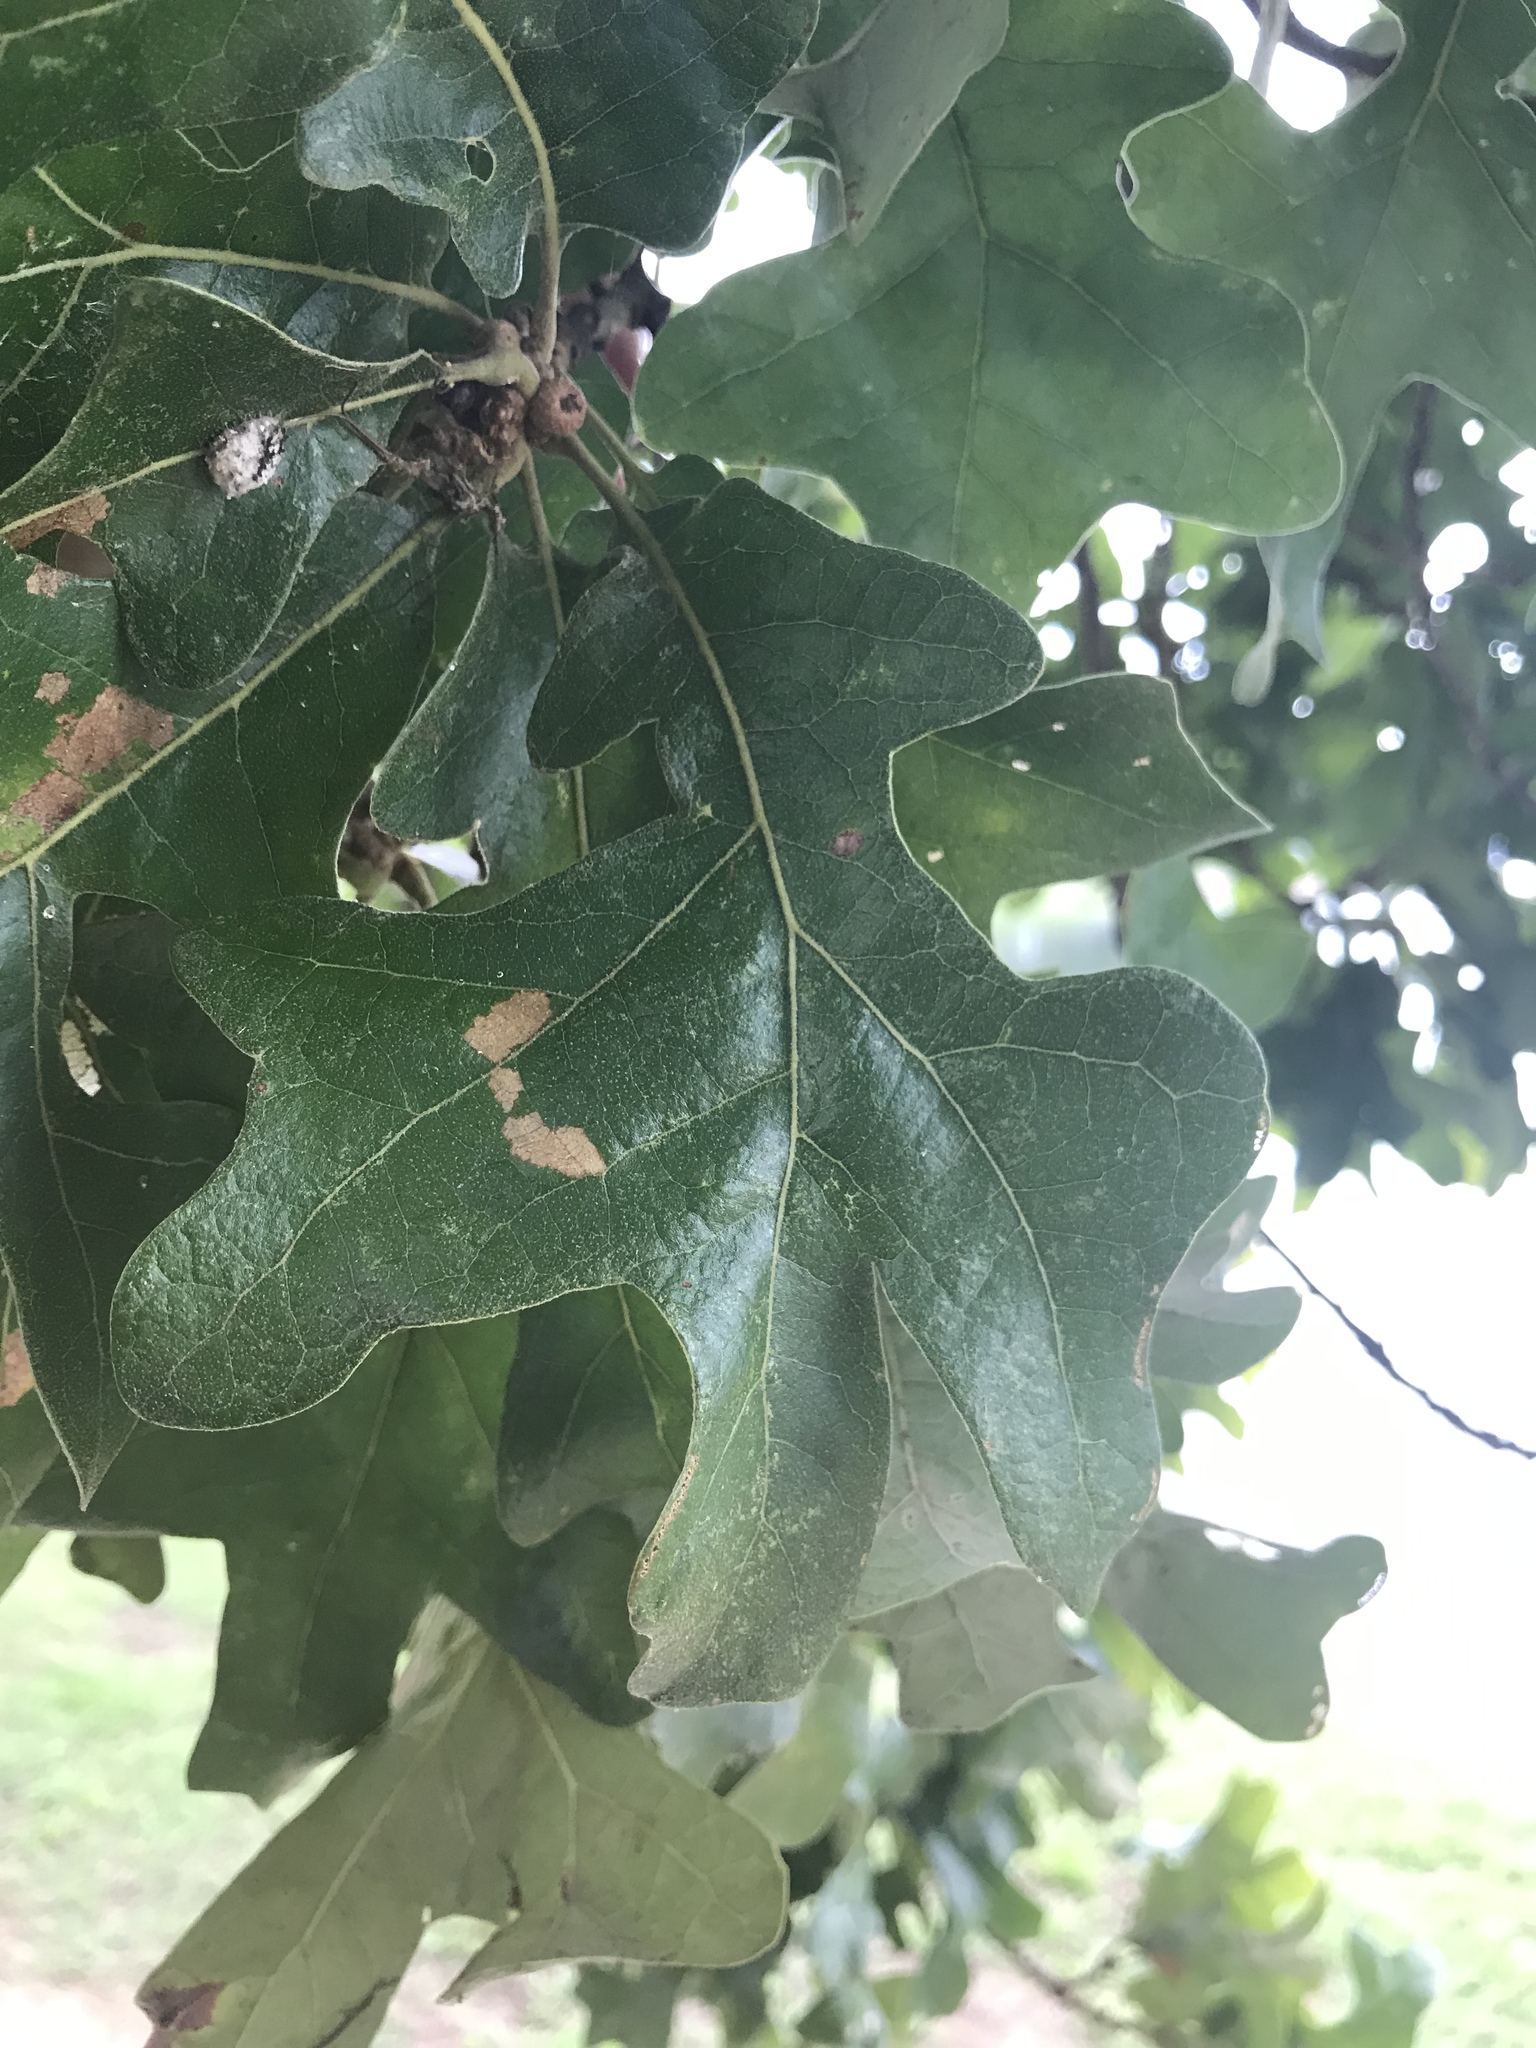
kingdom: Plantae
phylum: Tracheophyta
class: Magnoliopsida
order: Fagales
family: Fagaceae
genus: Quercus
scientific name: Quercus stellata
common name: Post oak
